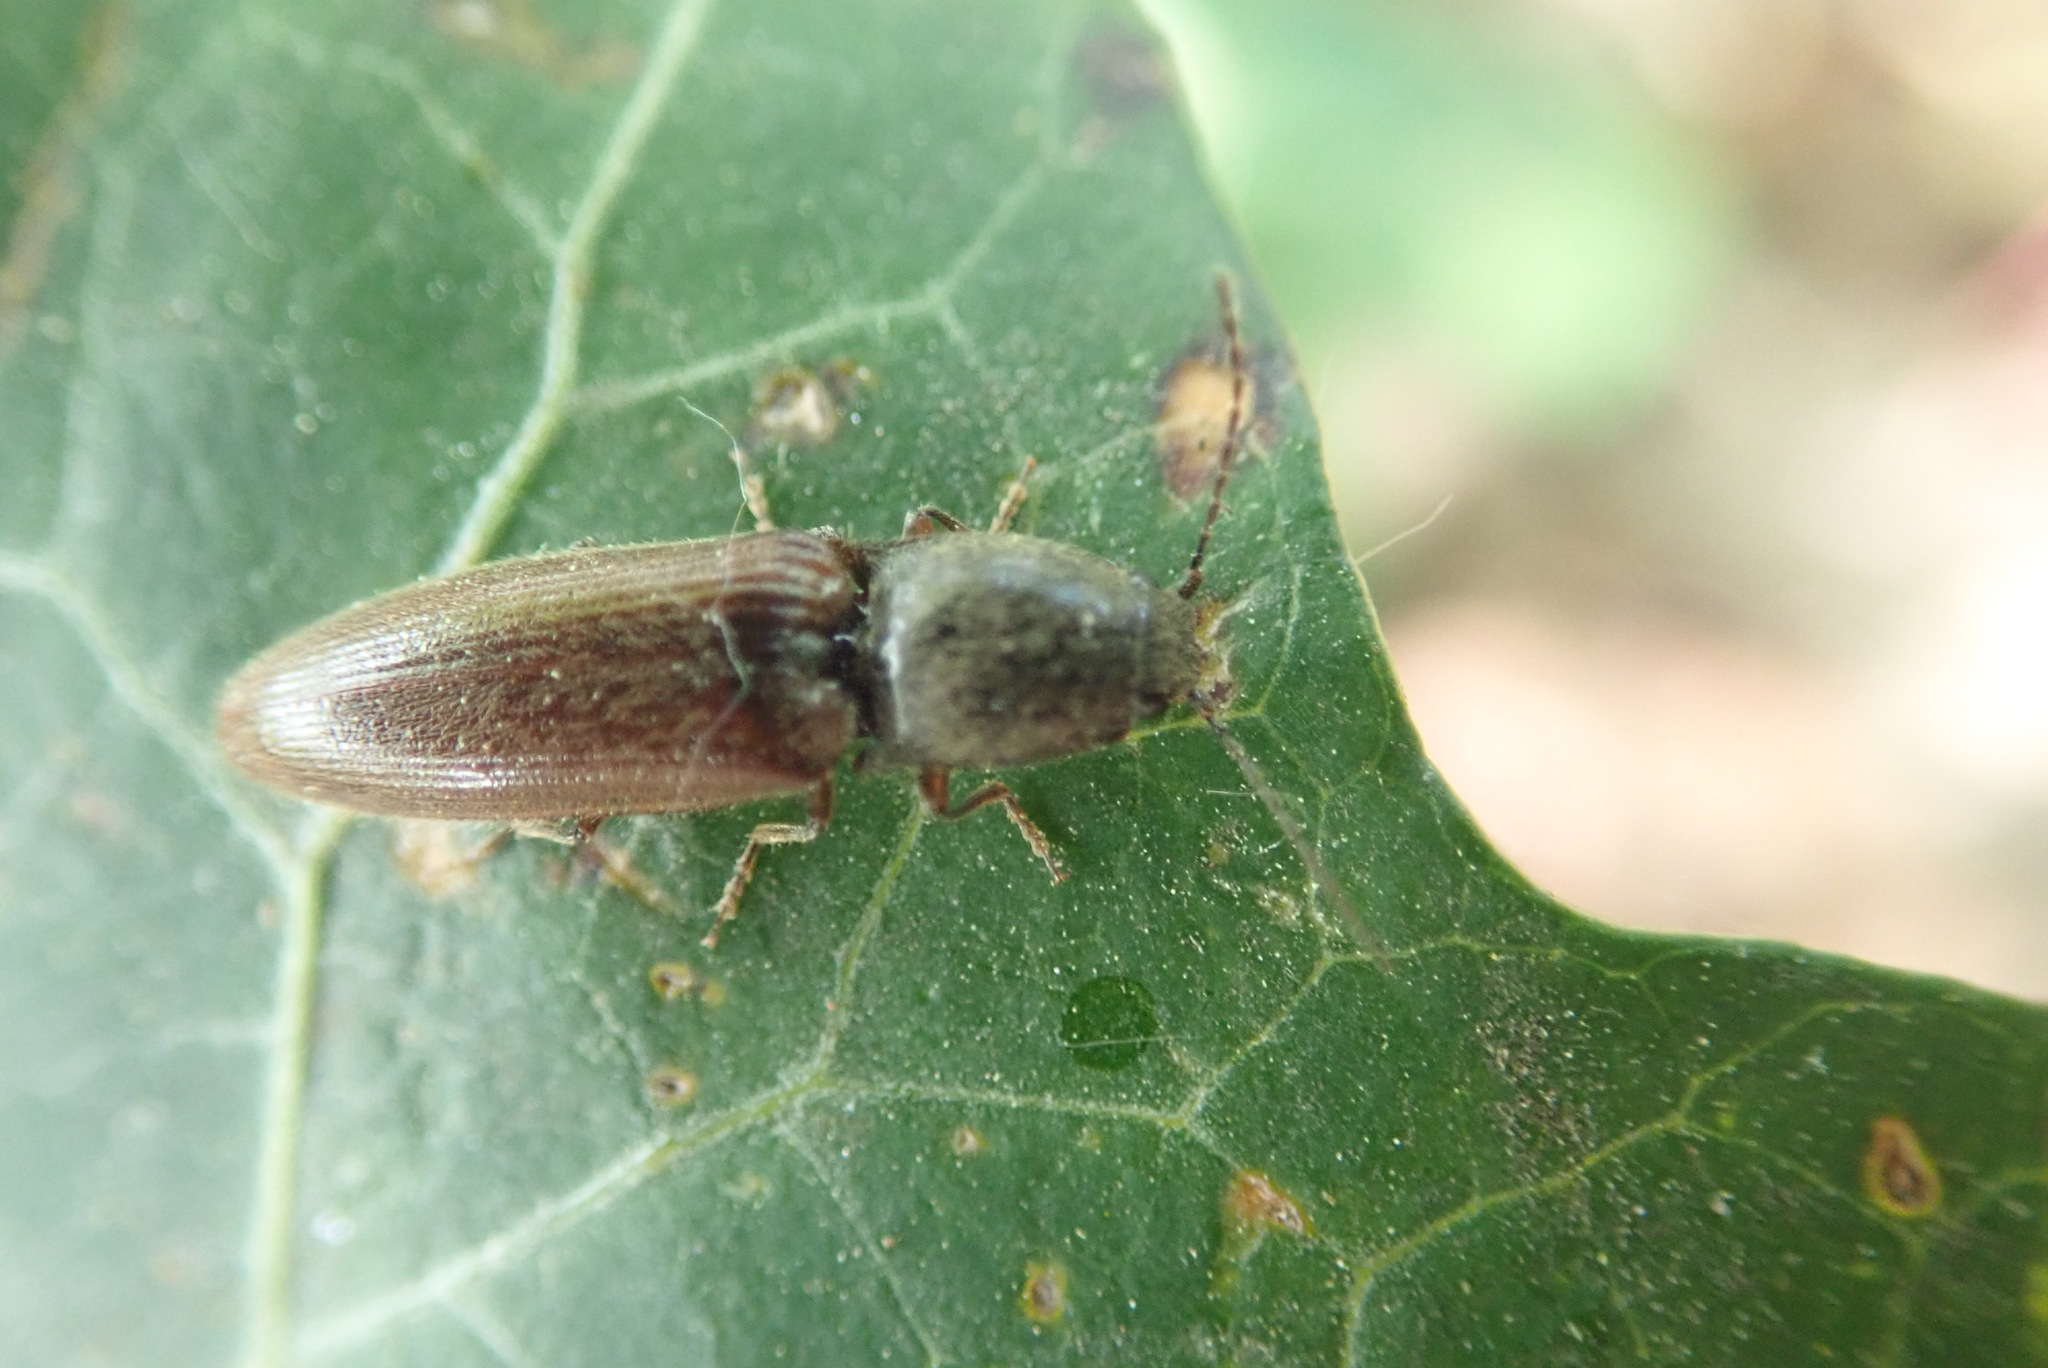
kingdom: Animalia
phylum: Arthropoda
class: Insecta
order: Coleoptera
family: Elateridae
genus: Athous
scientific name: Athous haemorrhoidalis
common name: Red-brown click beetle
